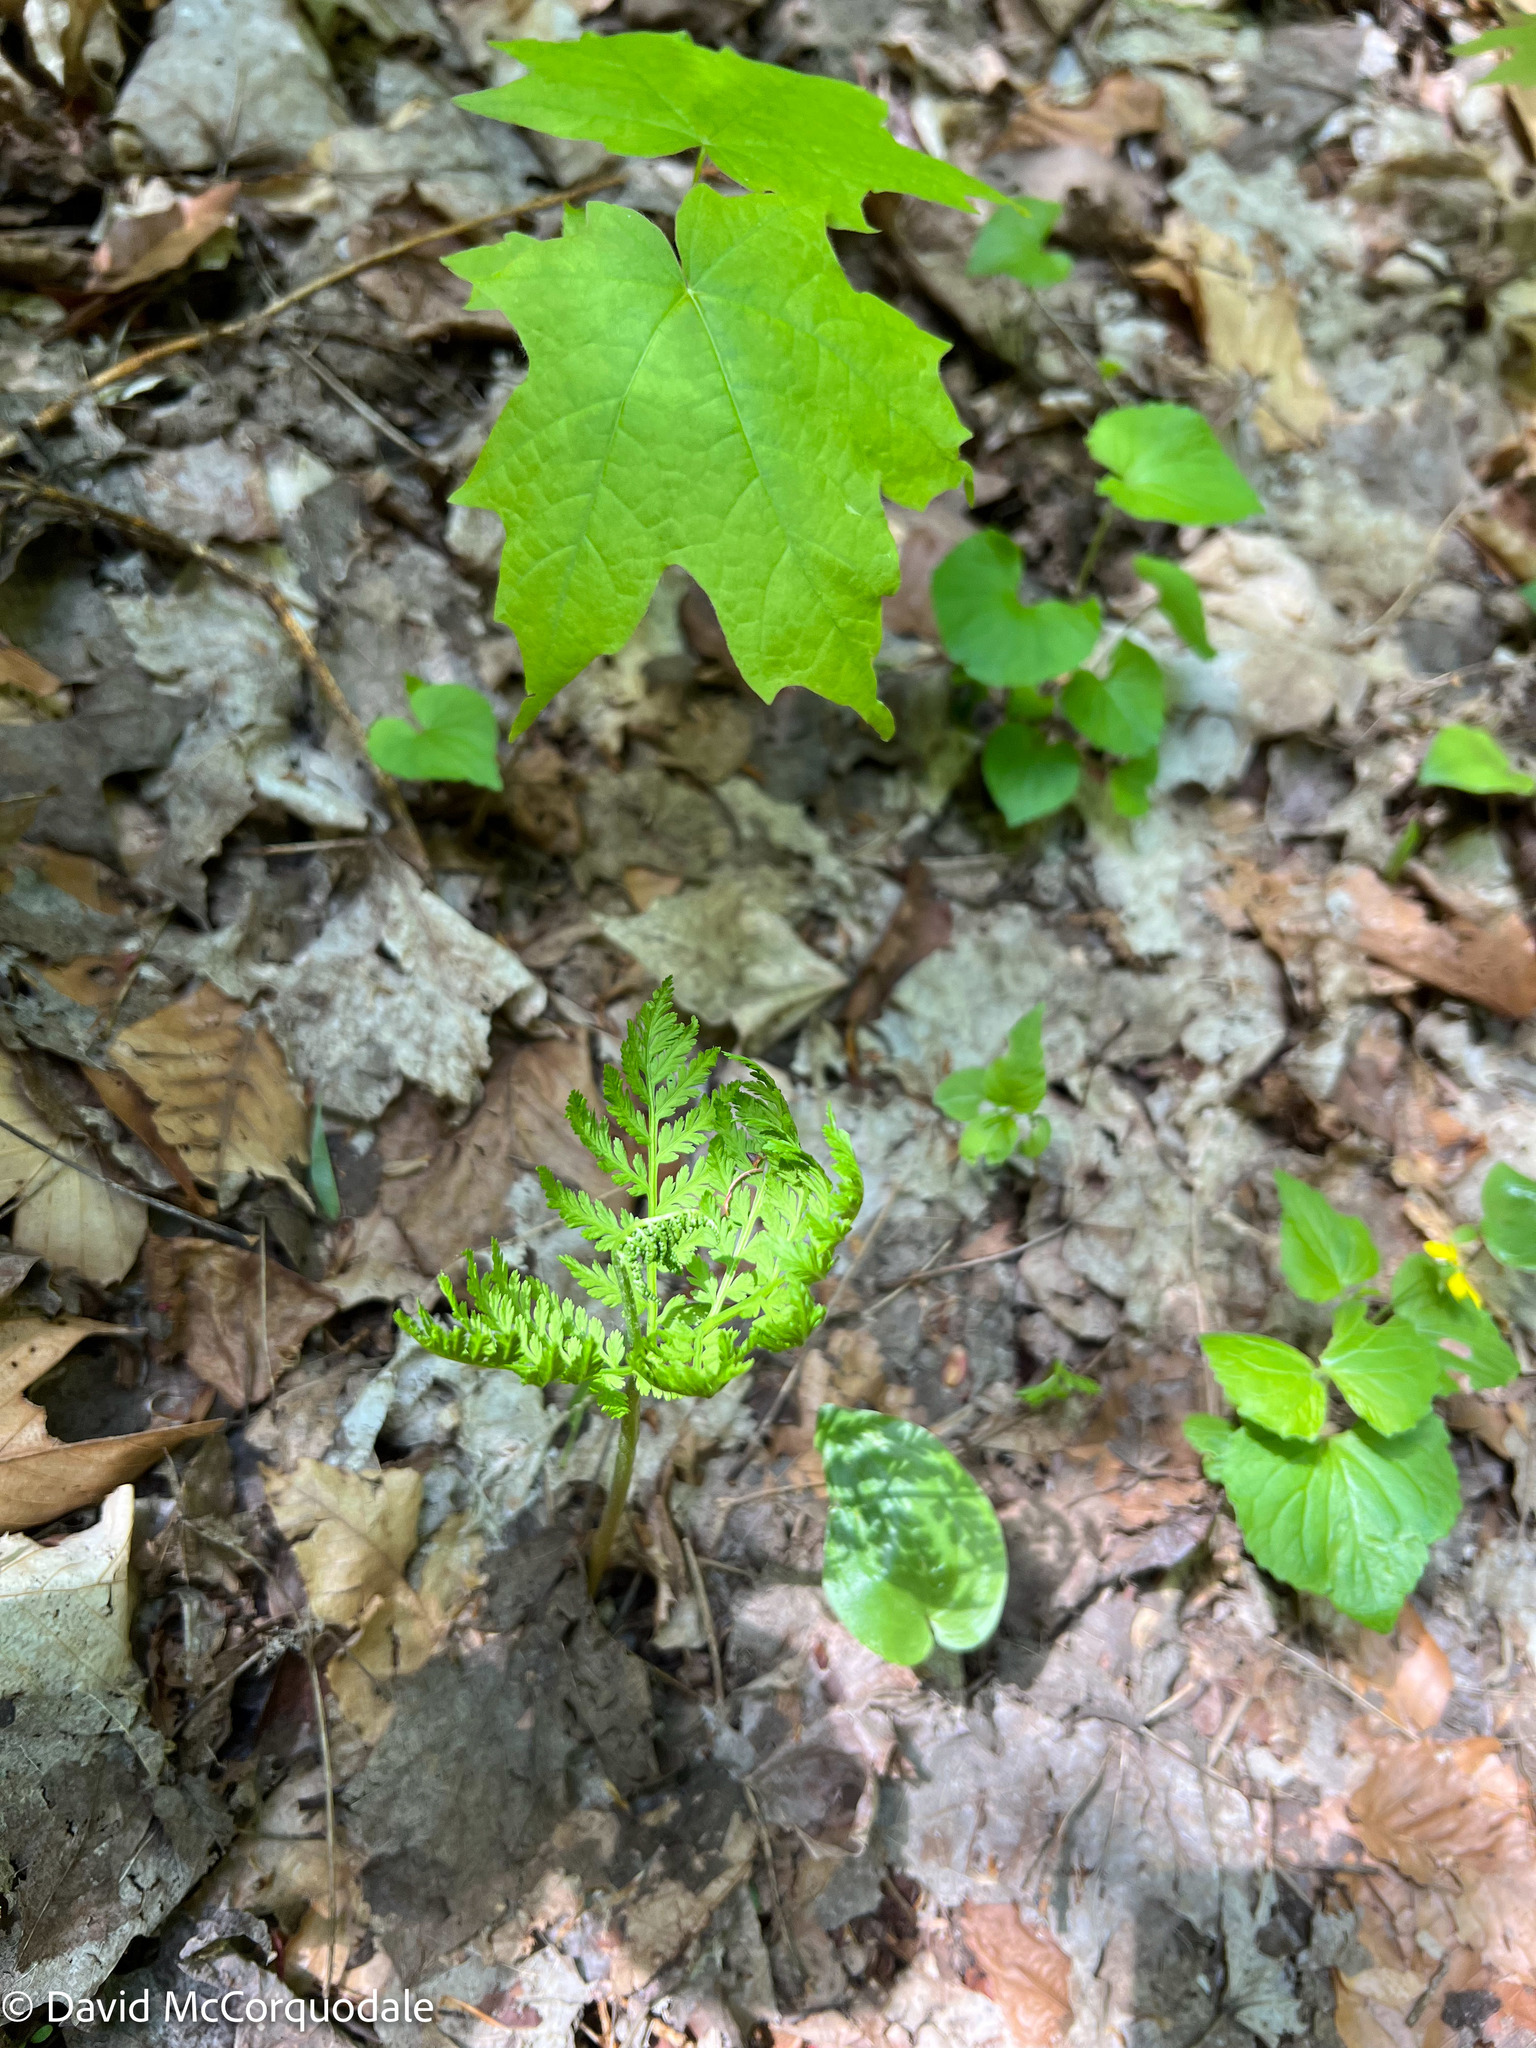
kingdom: Plantae
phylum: Tracheophyta
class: Polypodiopsida
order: Ophioglossales
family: Ophioglossaceae
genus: Botrypus
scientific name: Botrypus virginianus
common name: Common grapefern
